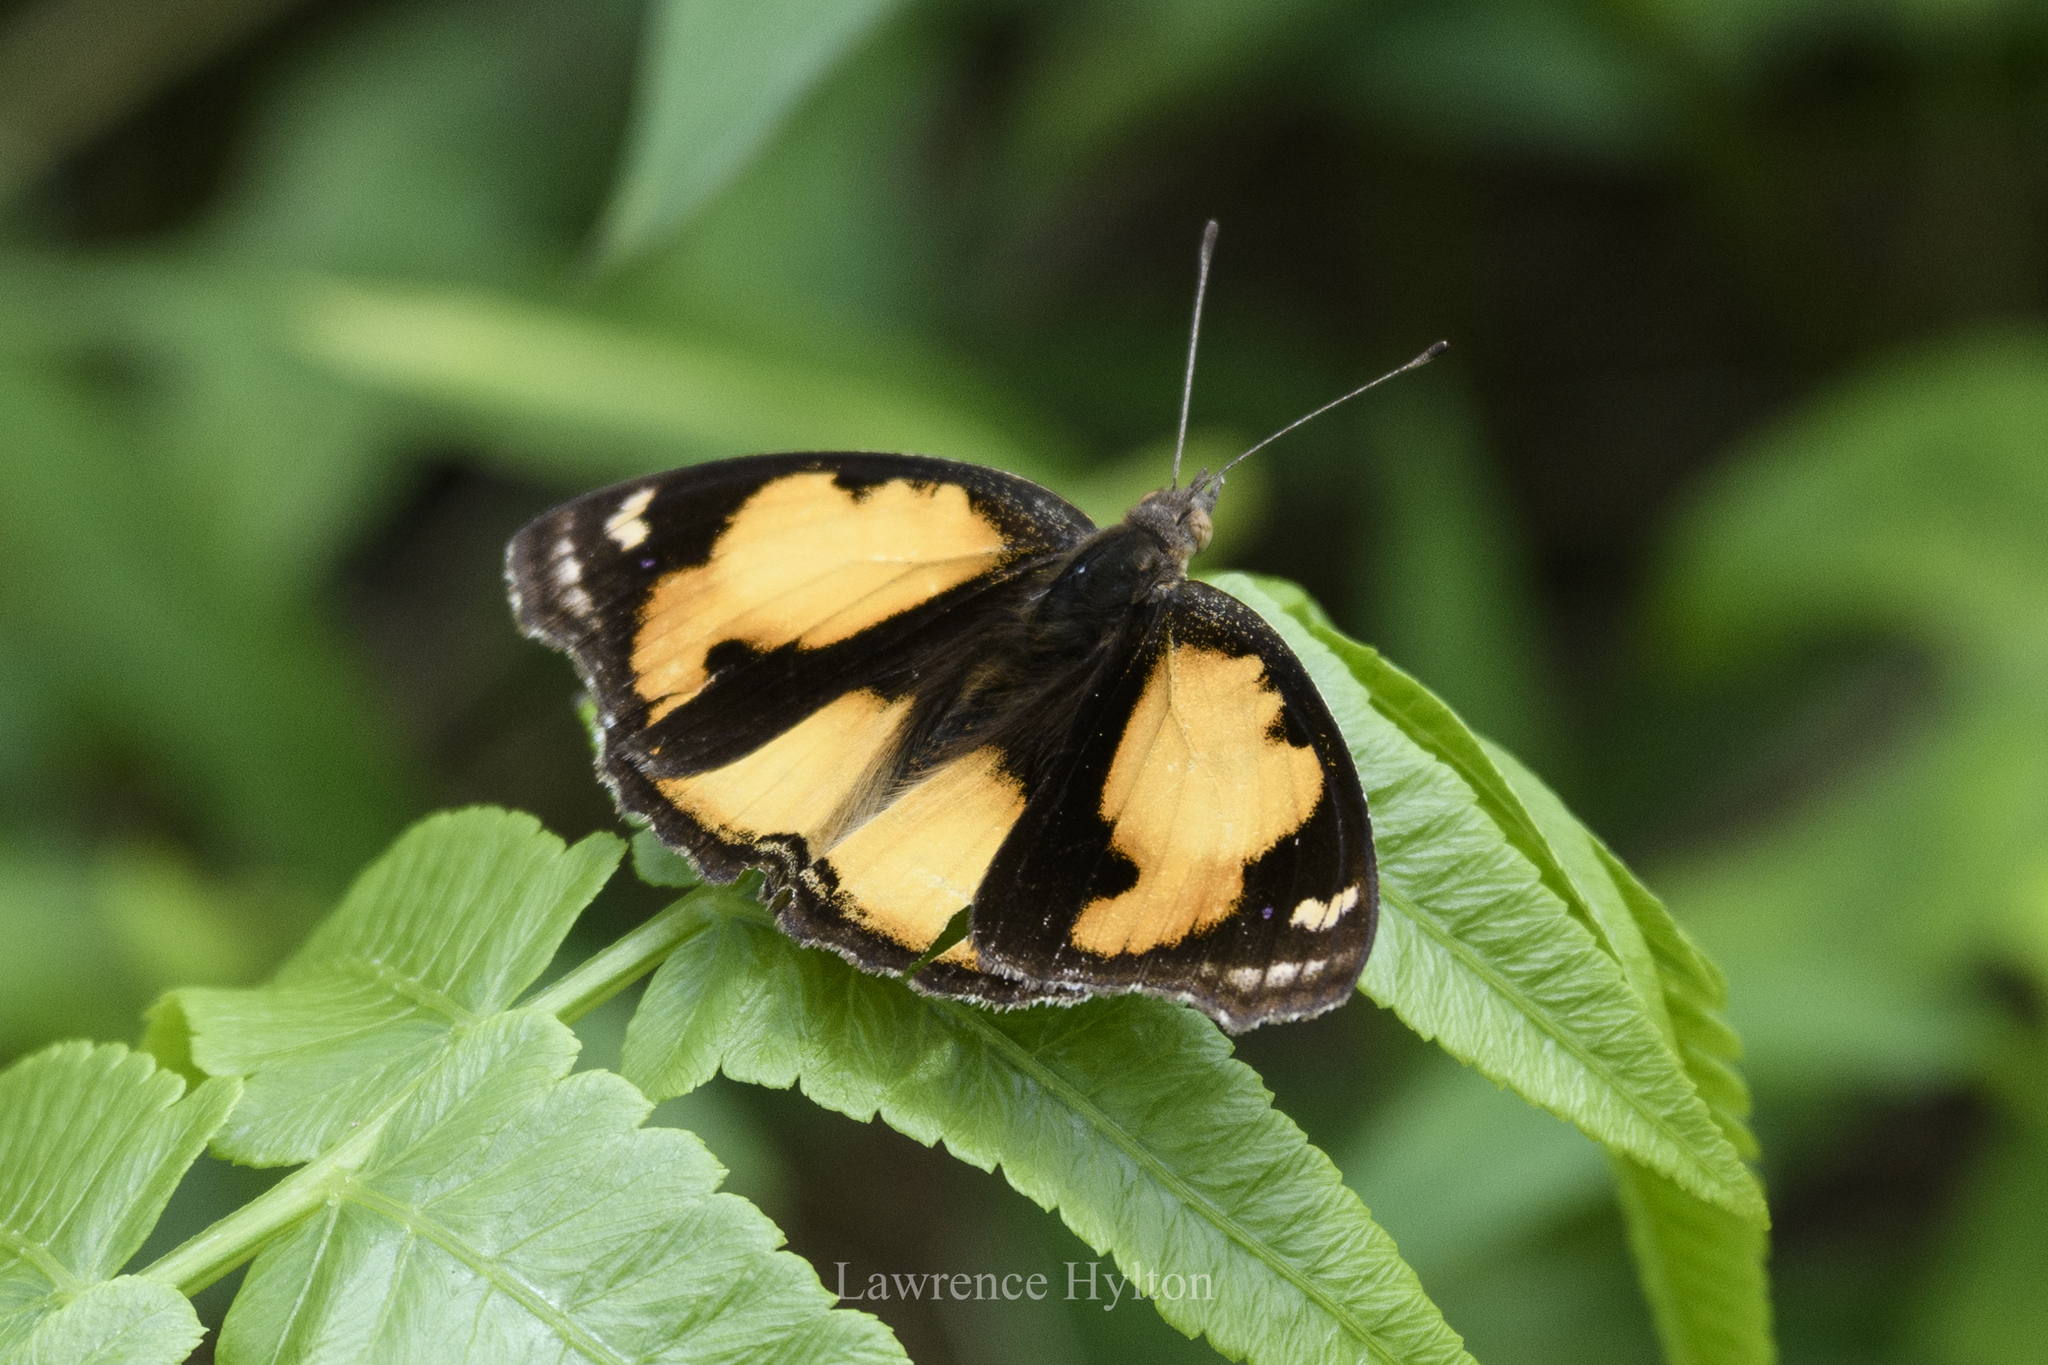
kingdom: Animalia
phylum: Arthropoda
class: Insecta
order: Lepidoptera
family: Nymphalidae
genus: Junonia
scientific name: Junonia hierta
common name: Yellow pansy
